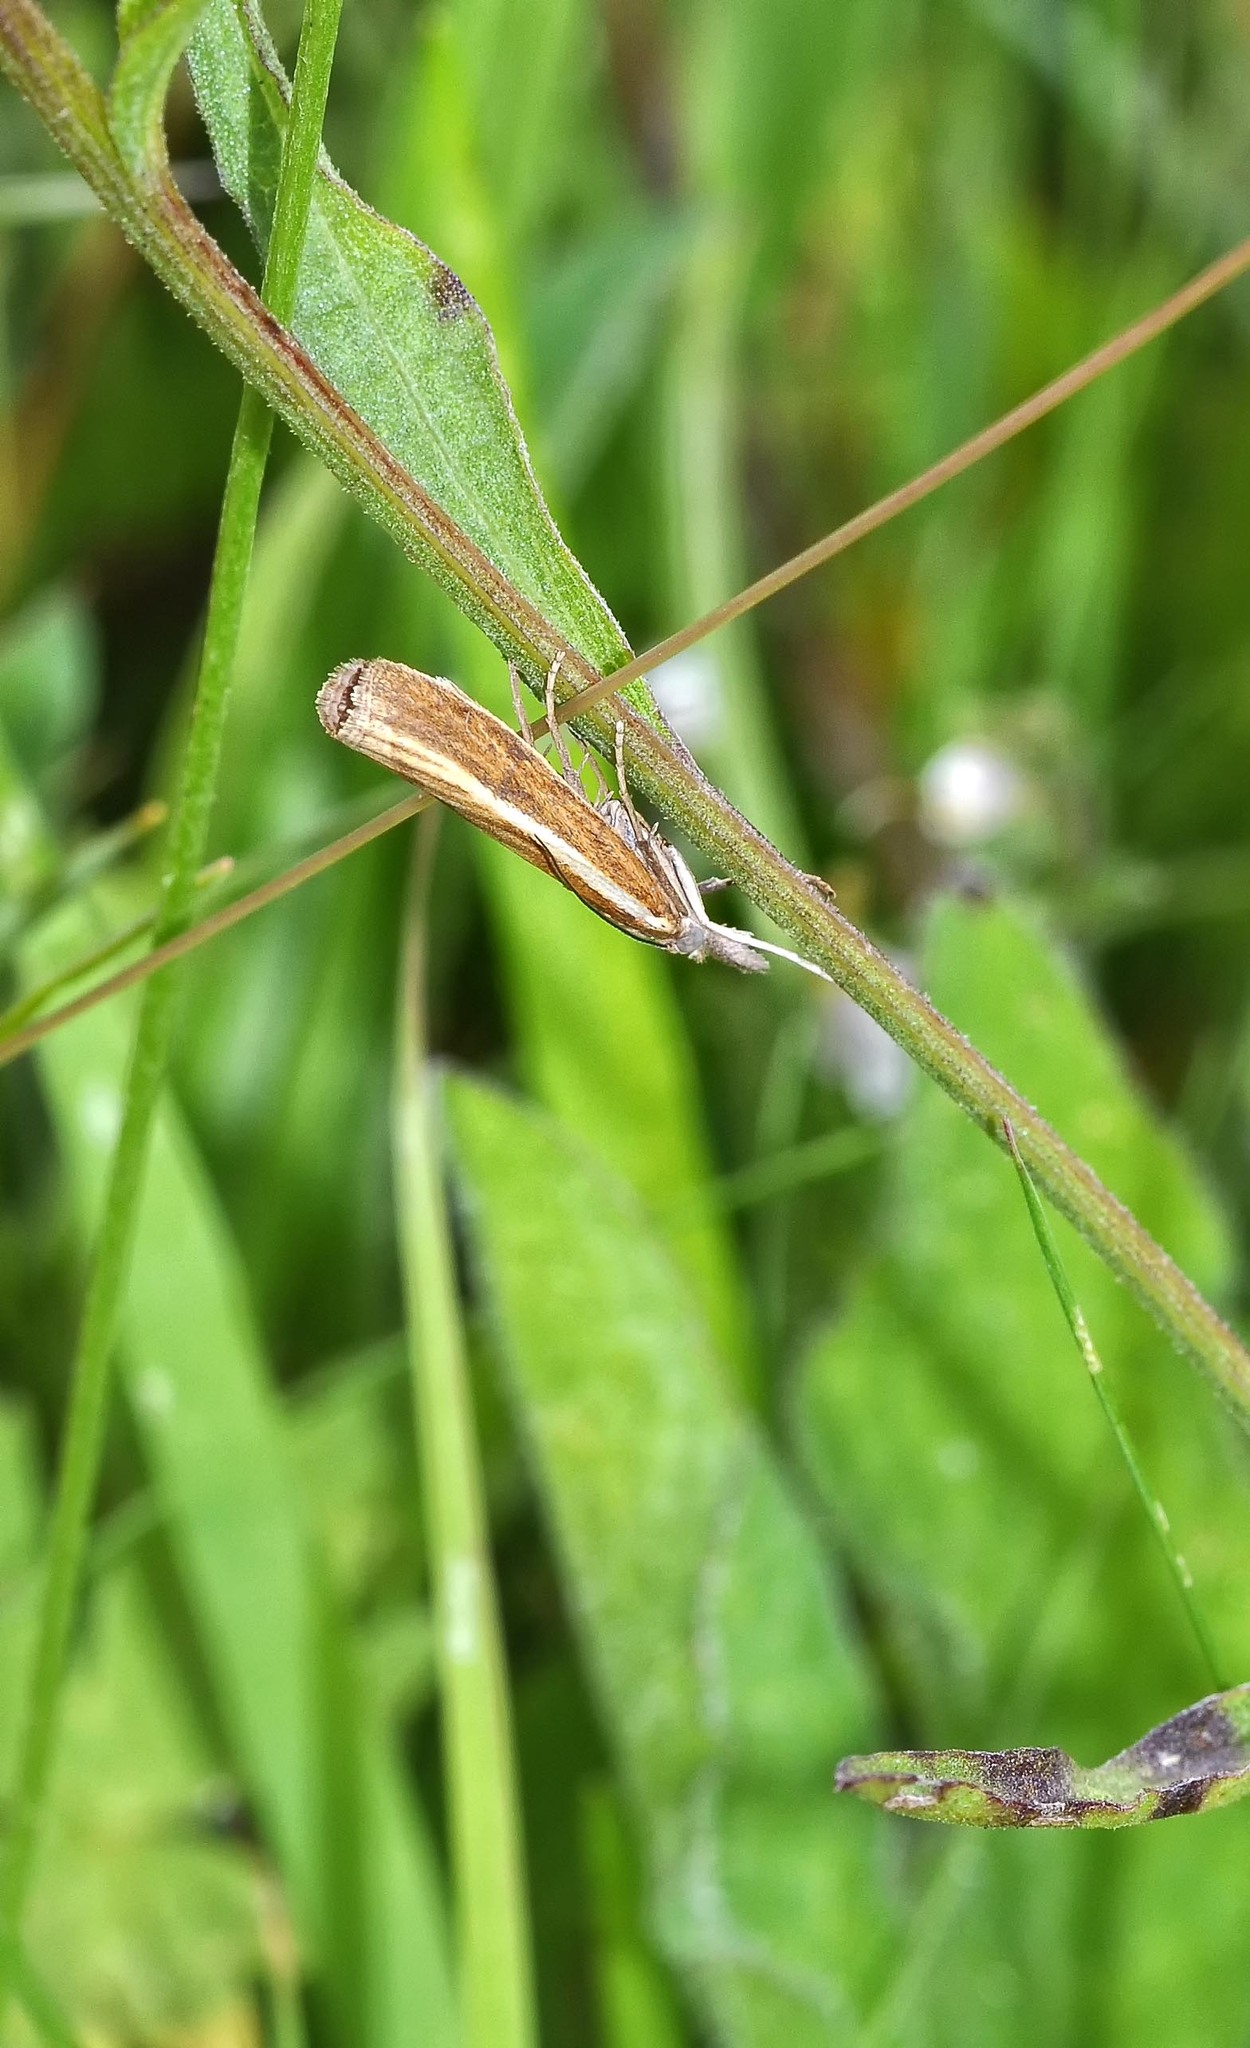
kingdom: Animalia
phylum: Arthropoda
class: Insecta
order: Lepidoptera
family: Crambidae
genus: Agriphila
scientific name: Agriphila tristellus
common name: Common grass-veneer
